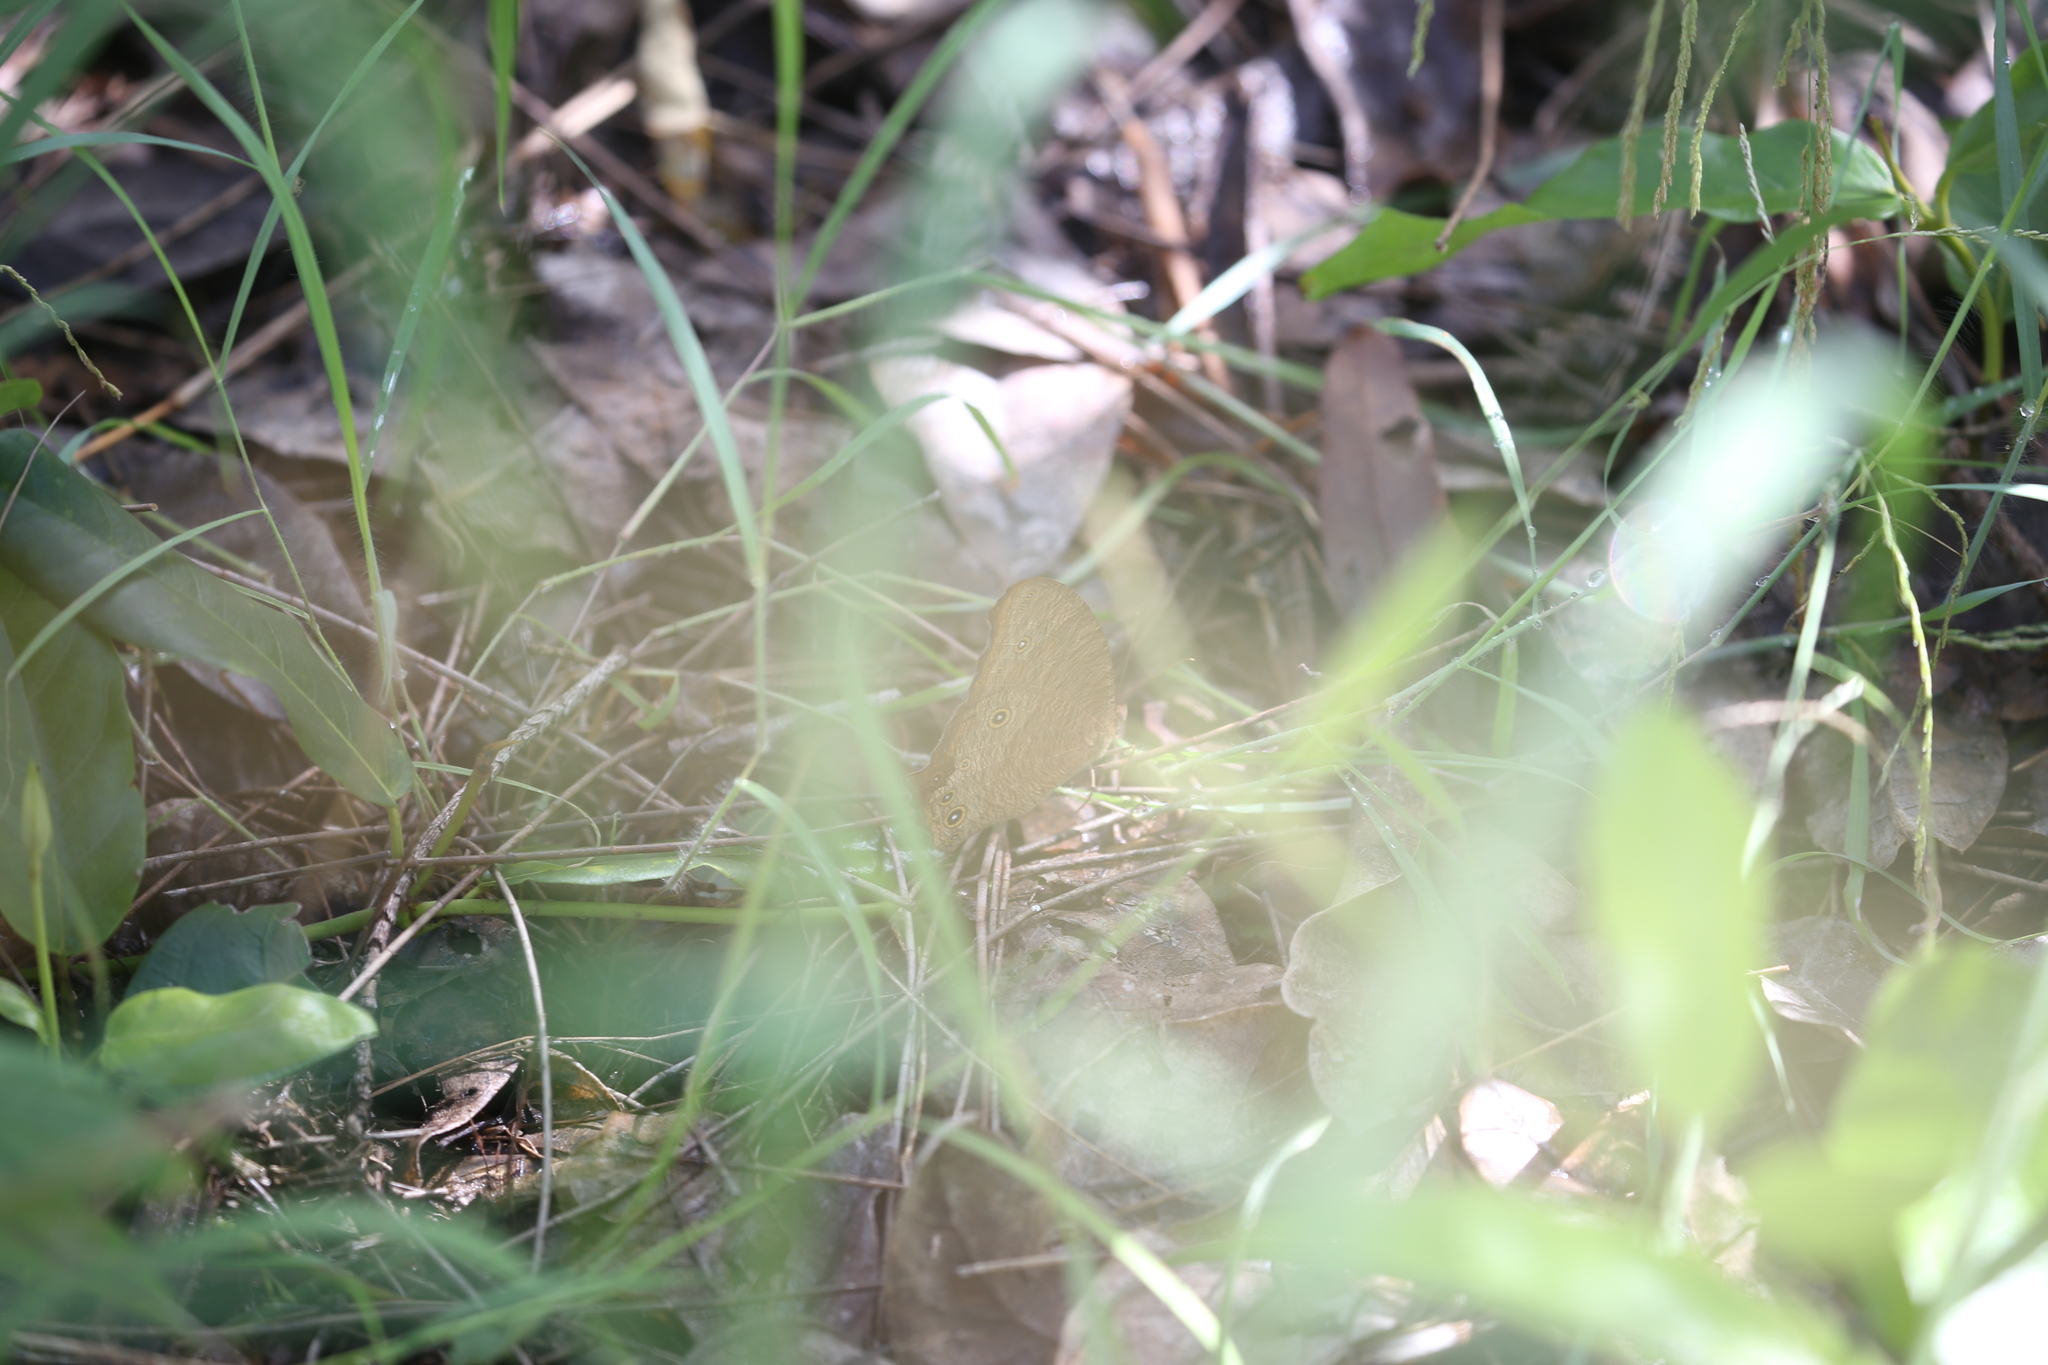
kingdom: Animalia
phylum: Arthropoda
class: Insecta
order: Lepidoptera
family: Nymphalidae
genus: Melanitis
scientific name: Melanitis leda
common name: Twilight brown
